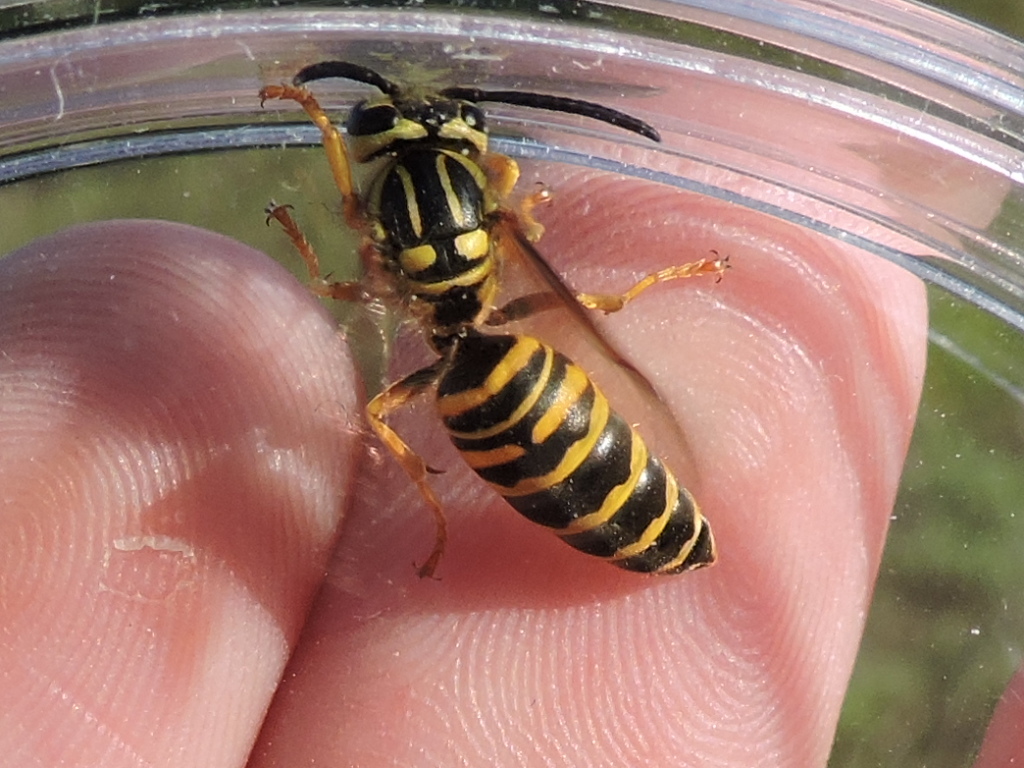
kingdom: Animalia
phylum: Arthropoda
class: Insecta
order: Hymenoptera
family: Vespidae
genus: Vespula
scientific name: Vespula squamosa
